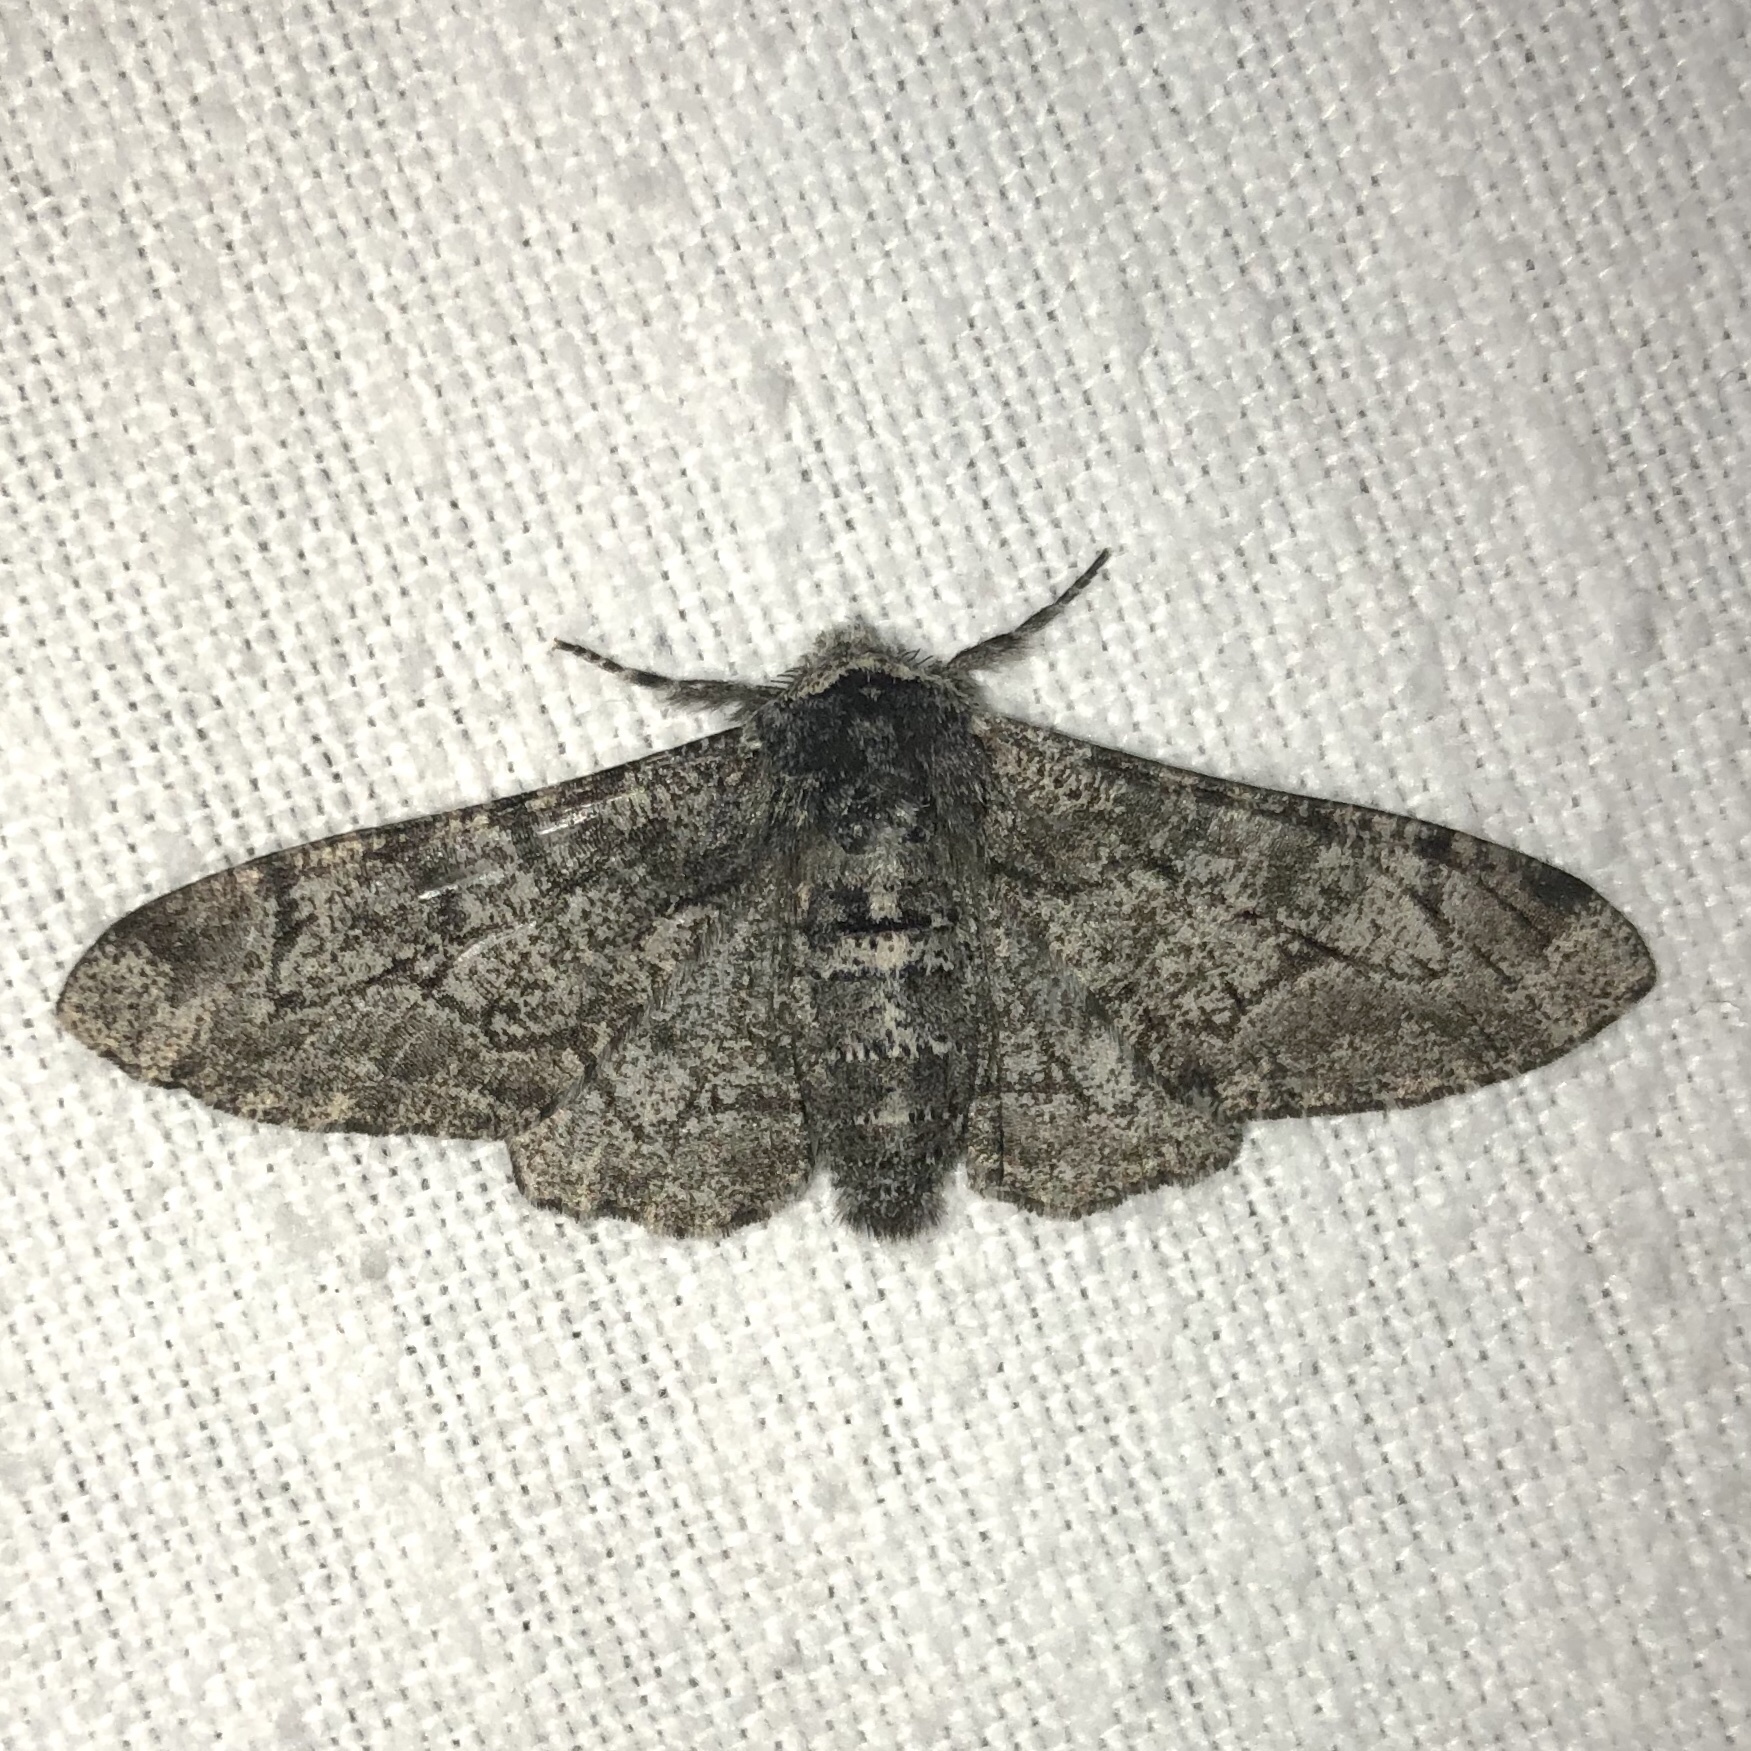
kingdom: Animalia
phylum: Arthropoda
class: Insecta
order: Lepidoptera
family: Geometridae
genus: Biston
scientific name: Biston betularia
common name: Peppered moth
